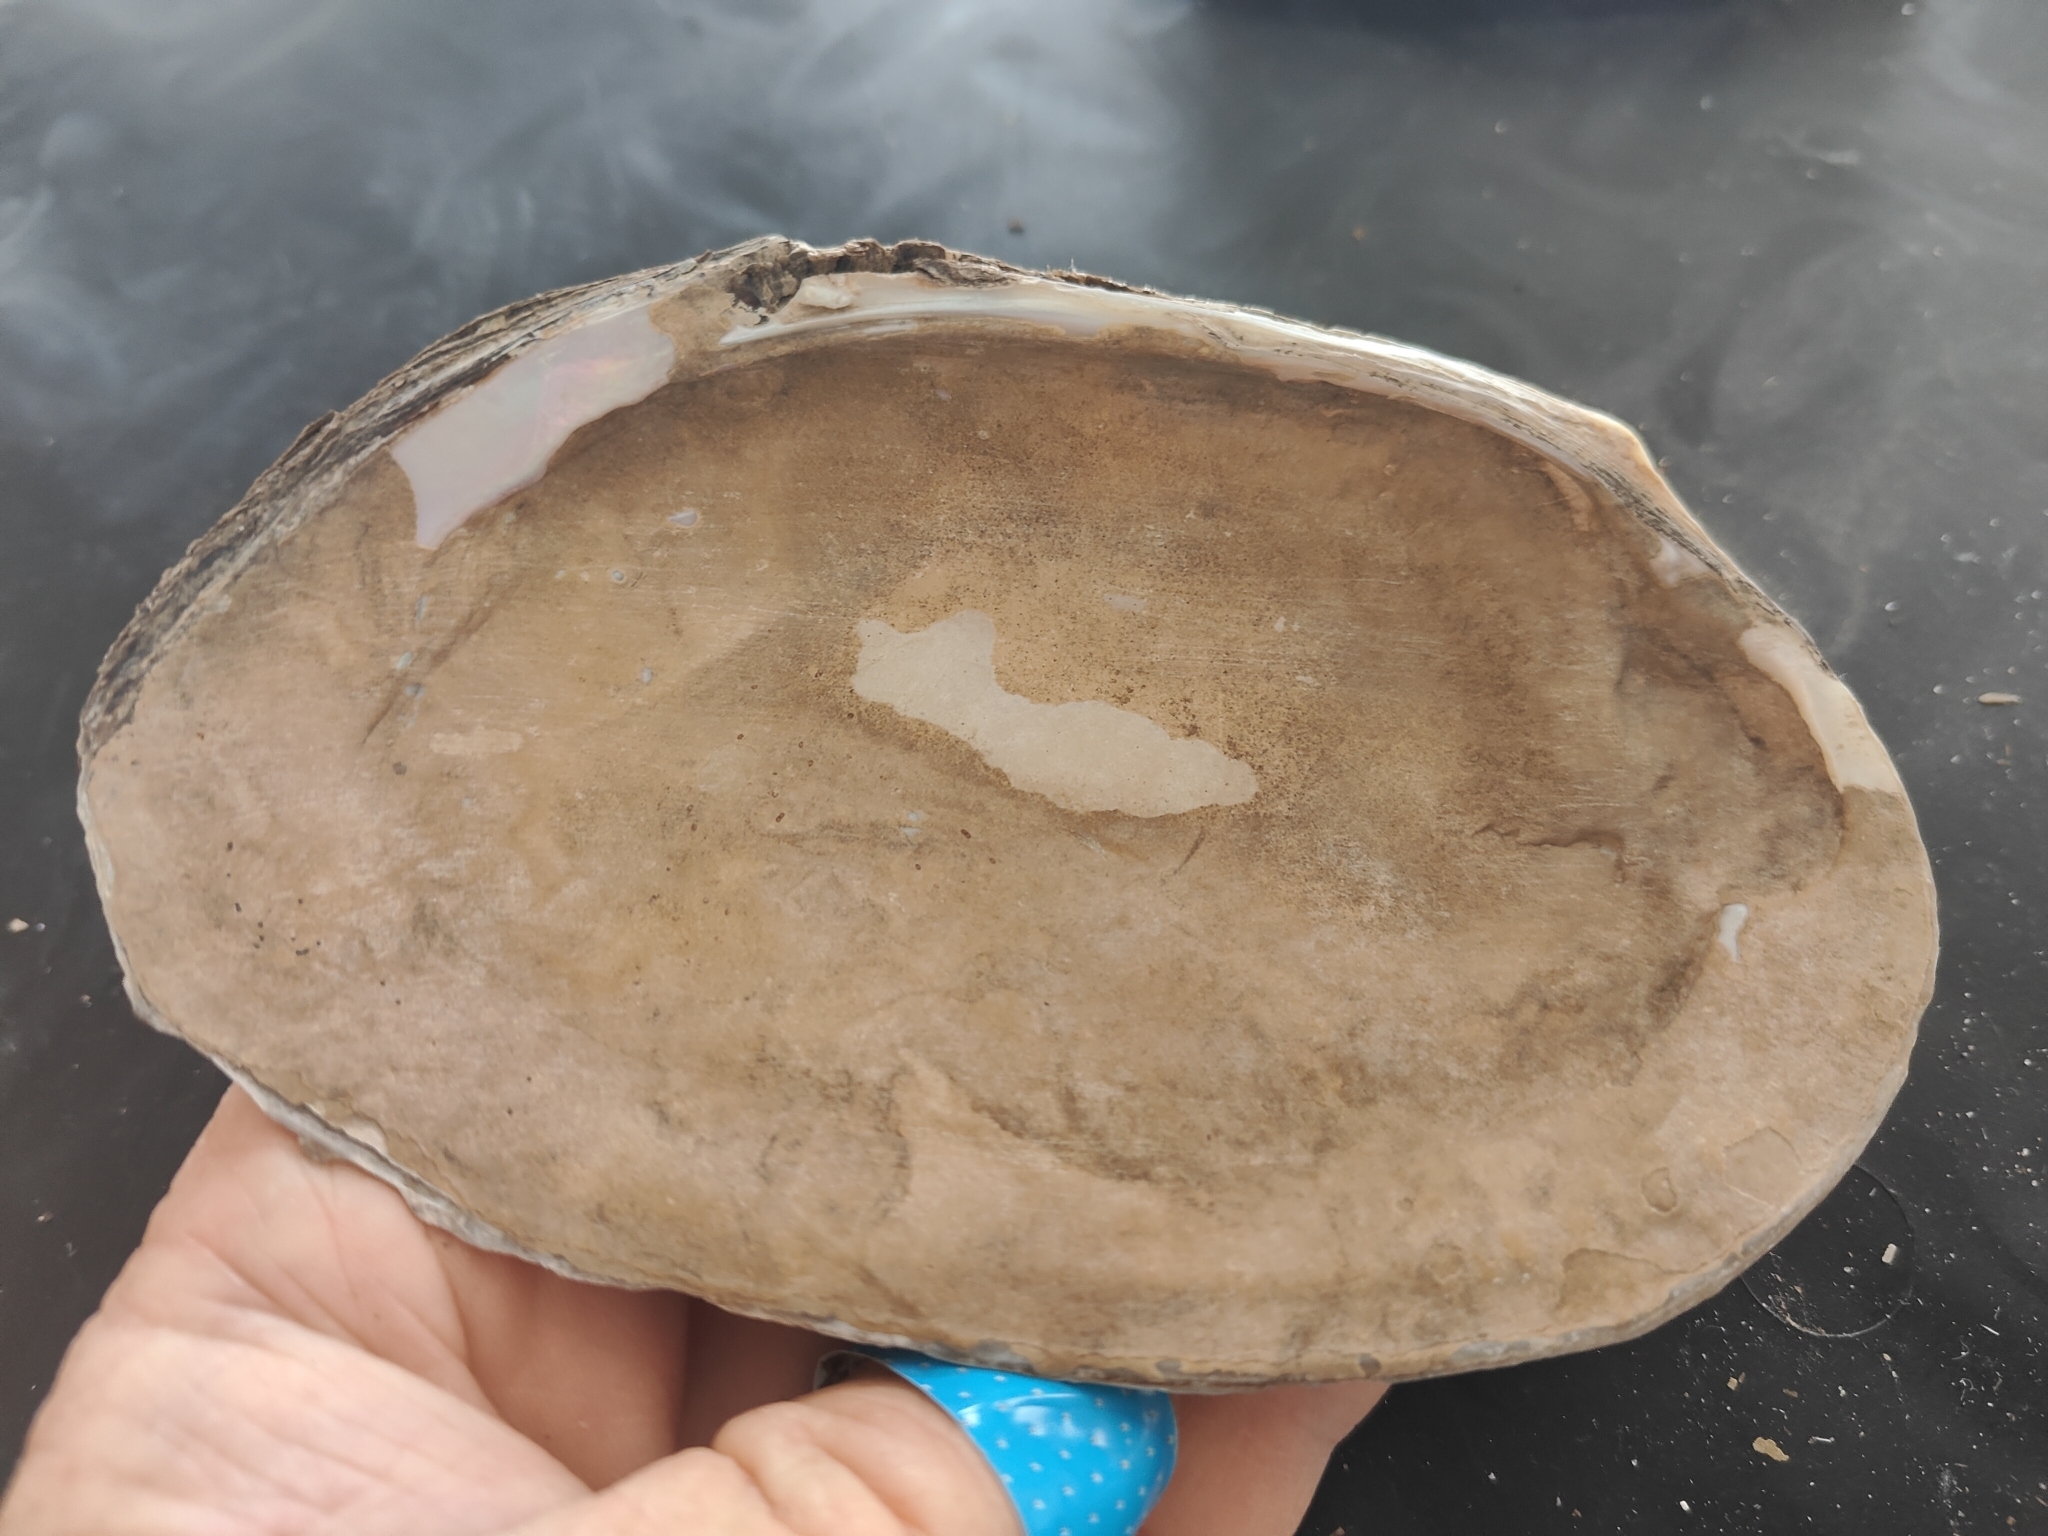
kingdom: Animalia
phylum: Mollusca
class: Bivalvia
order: Unionida
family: Unionidae
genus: Potamilus
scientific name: Potamilus fragilis
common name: Fragile papershell
